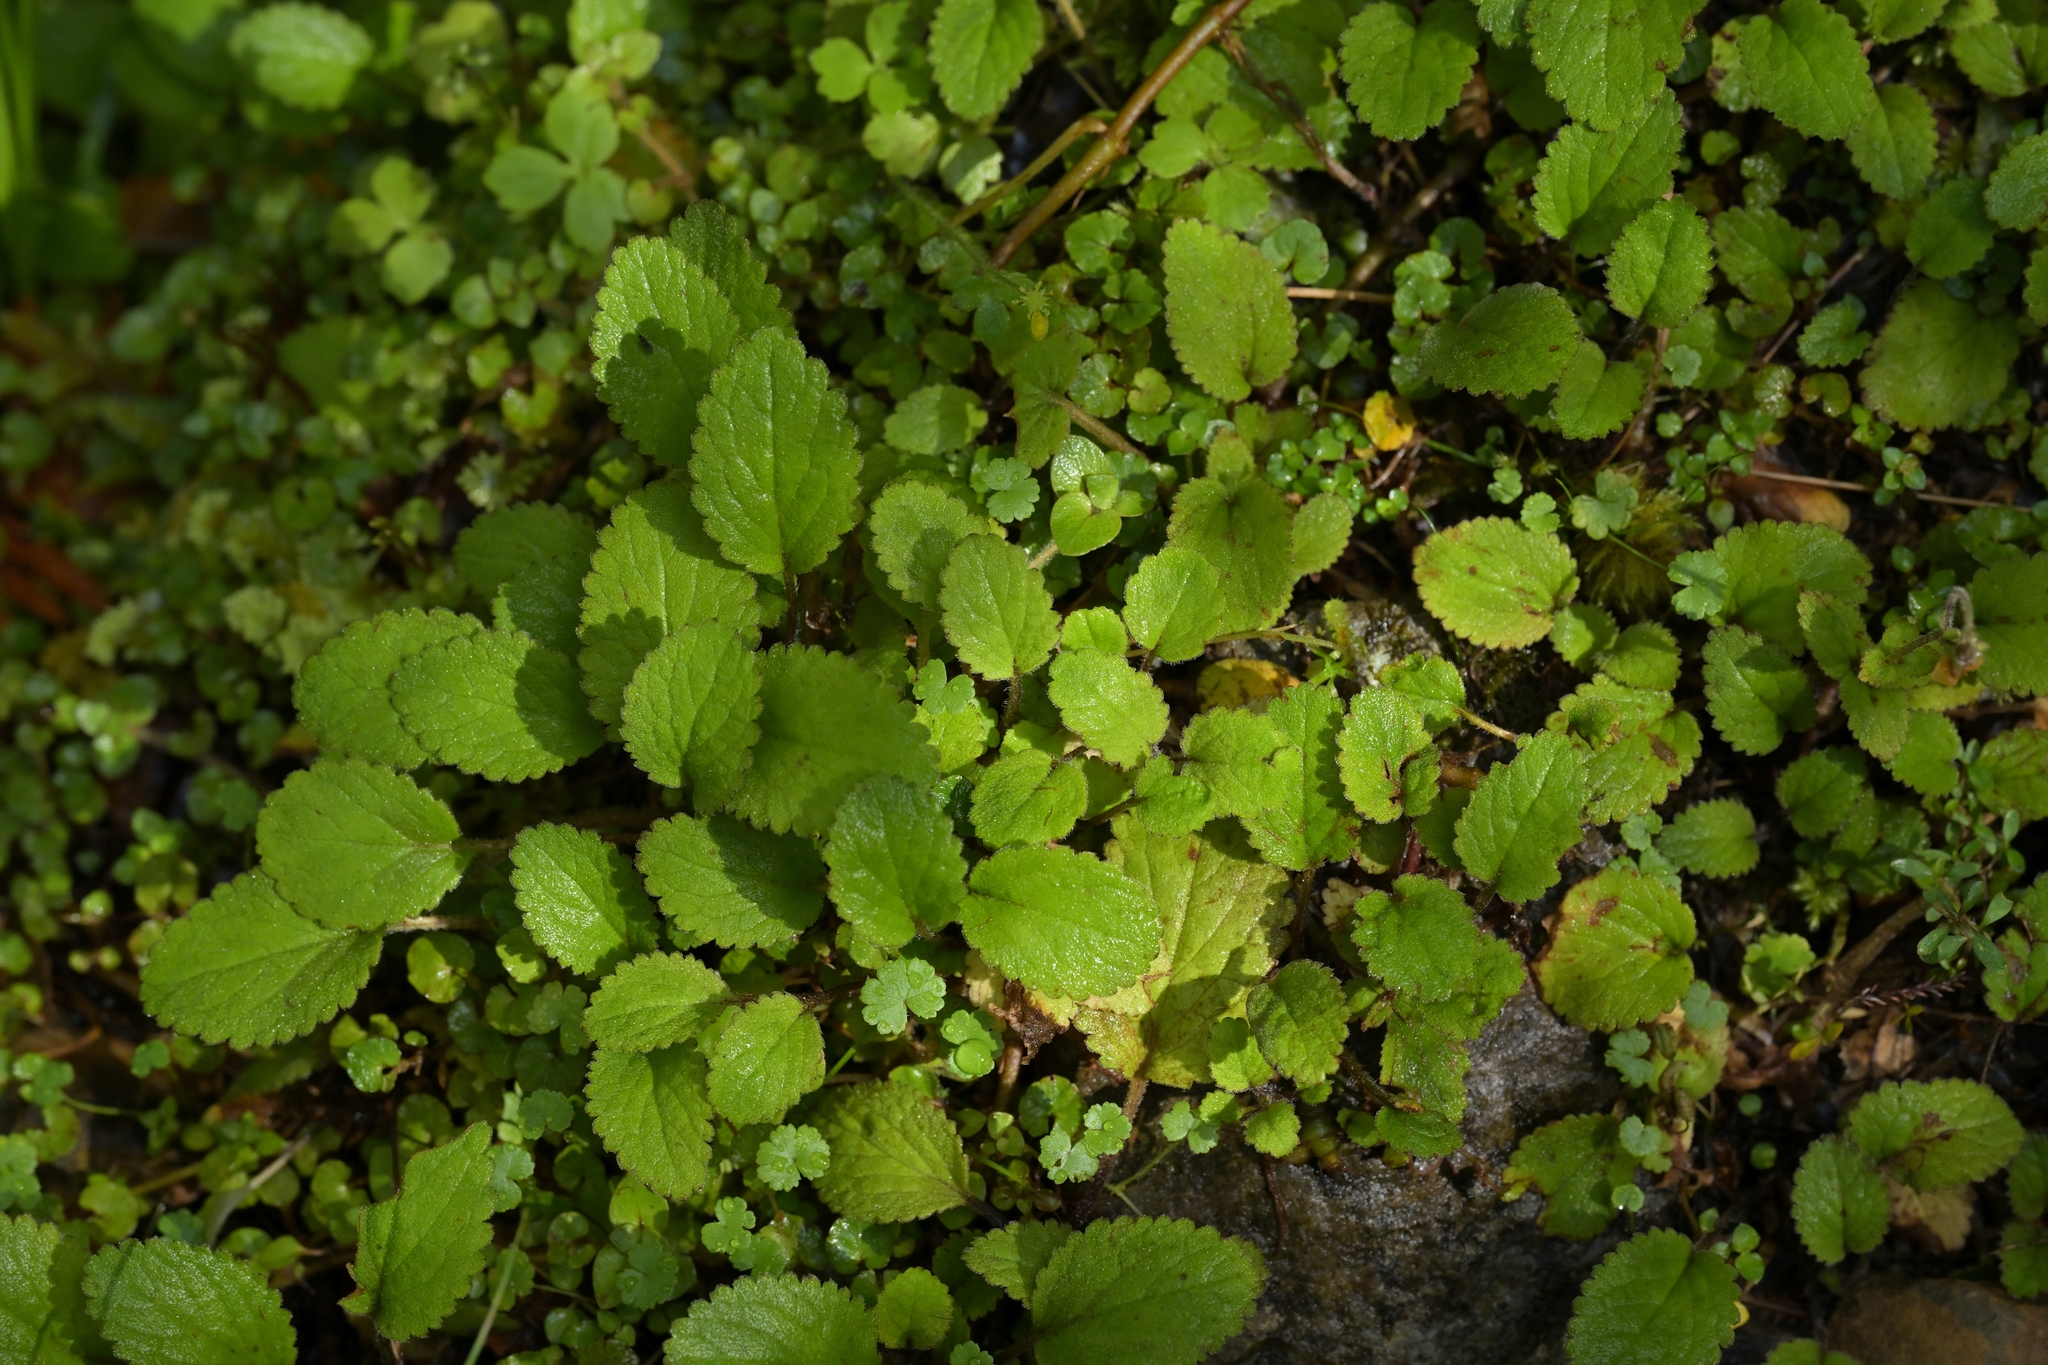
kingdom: Plantae
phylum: Tracheophyta
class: Magnoliopsida
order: Lamiales
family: Plantaginaceae
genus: Ourisia
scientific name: Ourisia macrophylla
